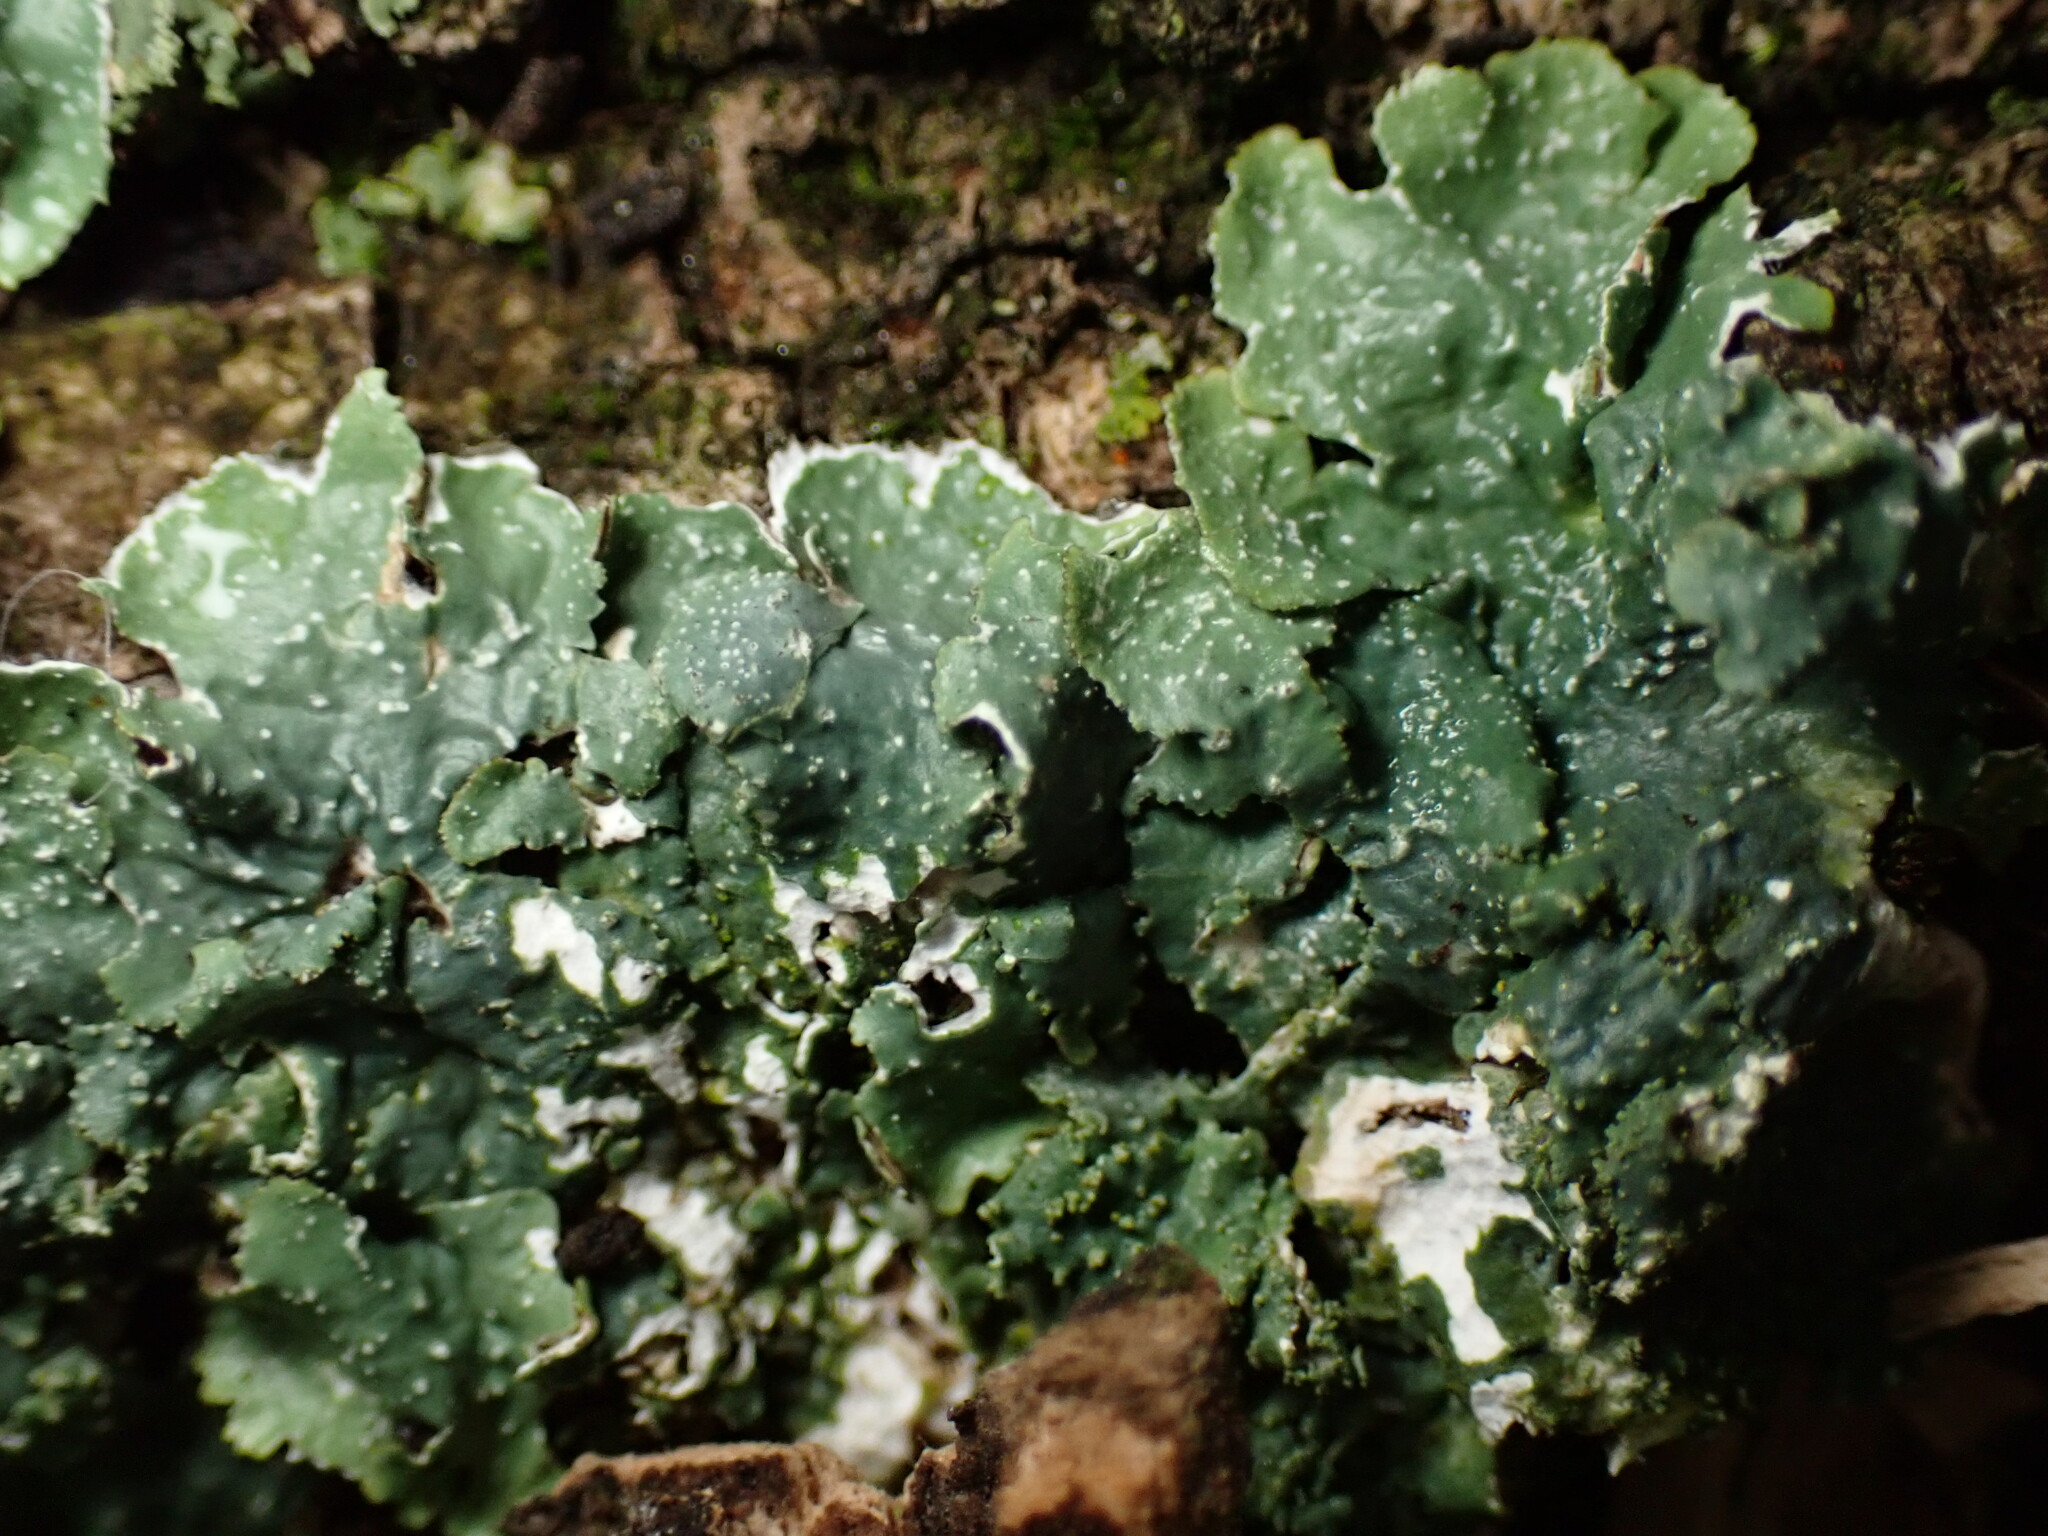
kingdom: Fungi
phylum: Ascomycota
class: Lecanoromycetes
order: Lecanorales
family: Parmeliaceae
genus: Punctelia
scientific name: Punctelia rudecta
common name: Rough speckled shield lichen
